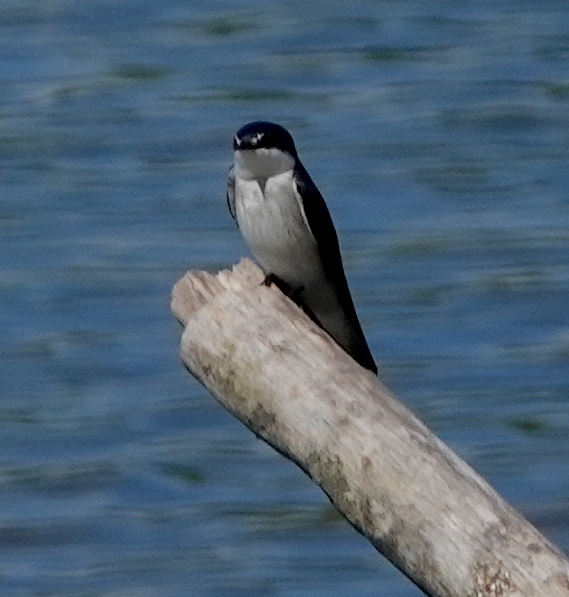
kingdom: Animalia
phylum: Chordata
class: Aves
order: Passeriformes
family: Hirundinidae
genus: Tachycineta
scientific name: Tachycineta albilinea
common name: Mangrove swallow
